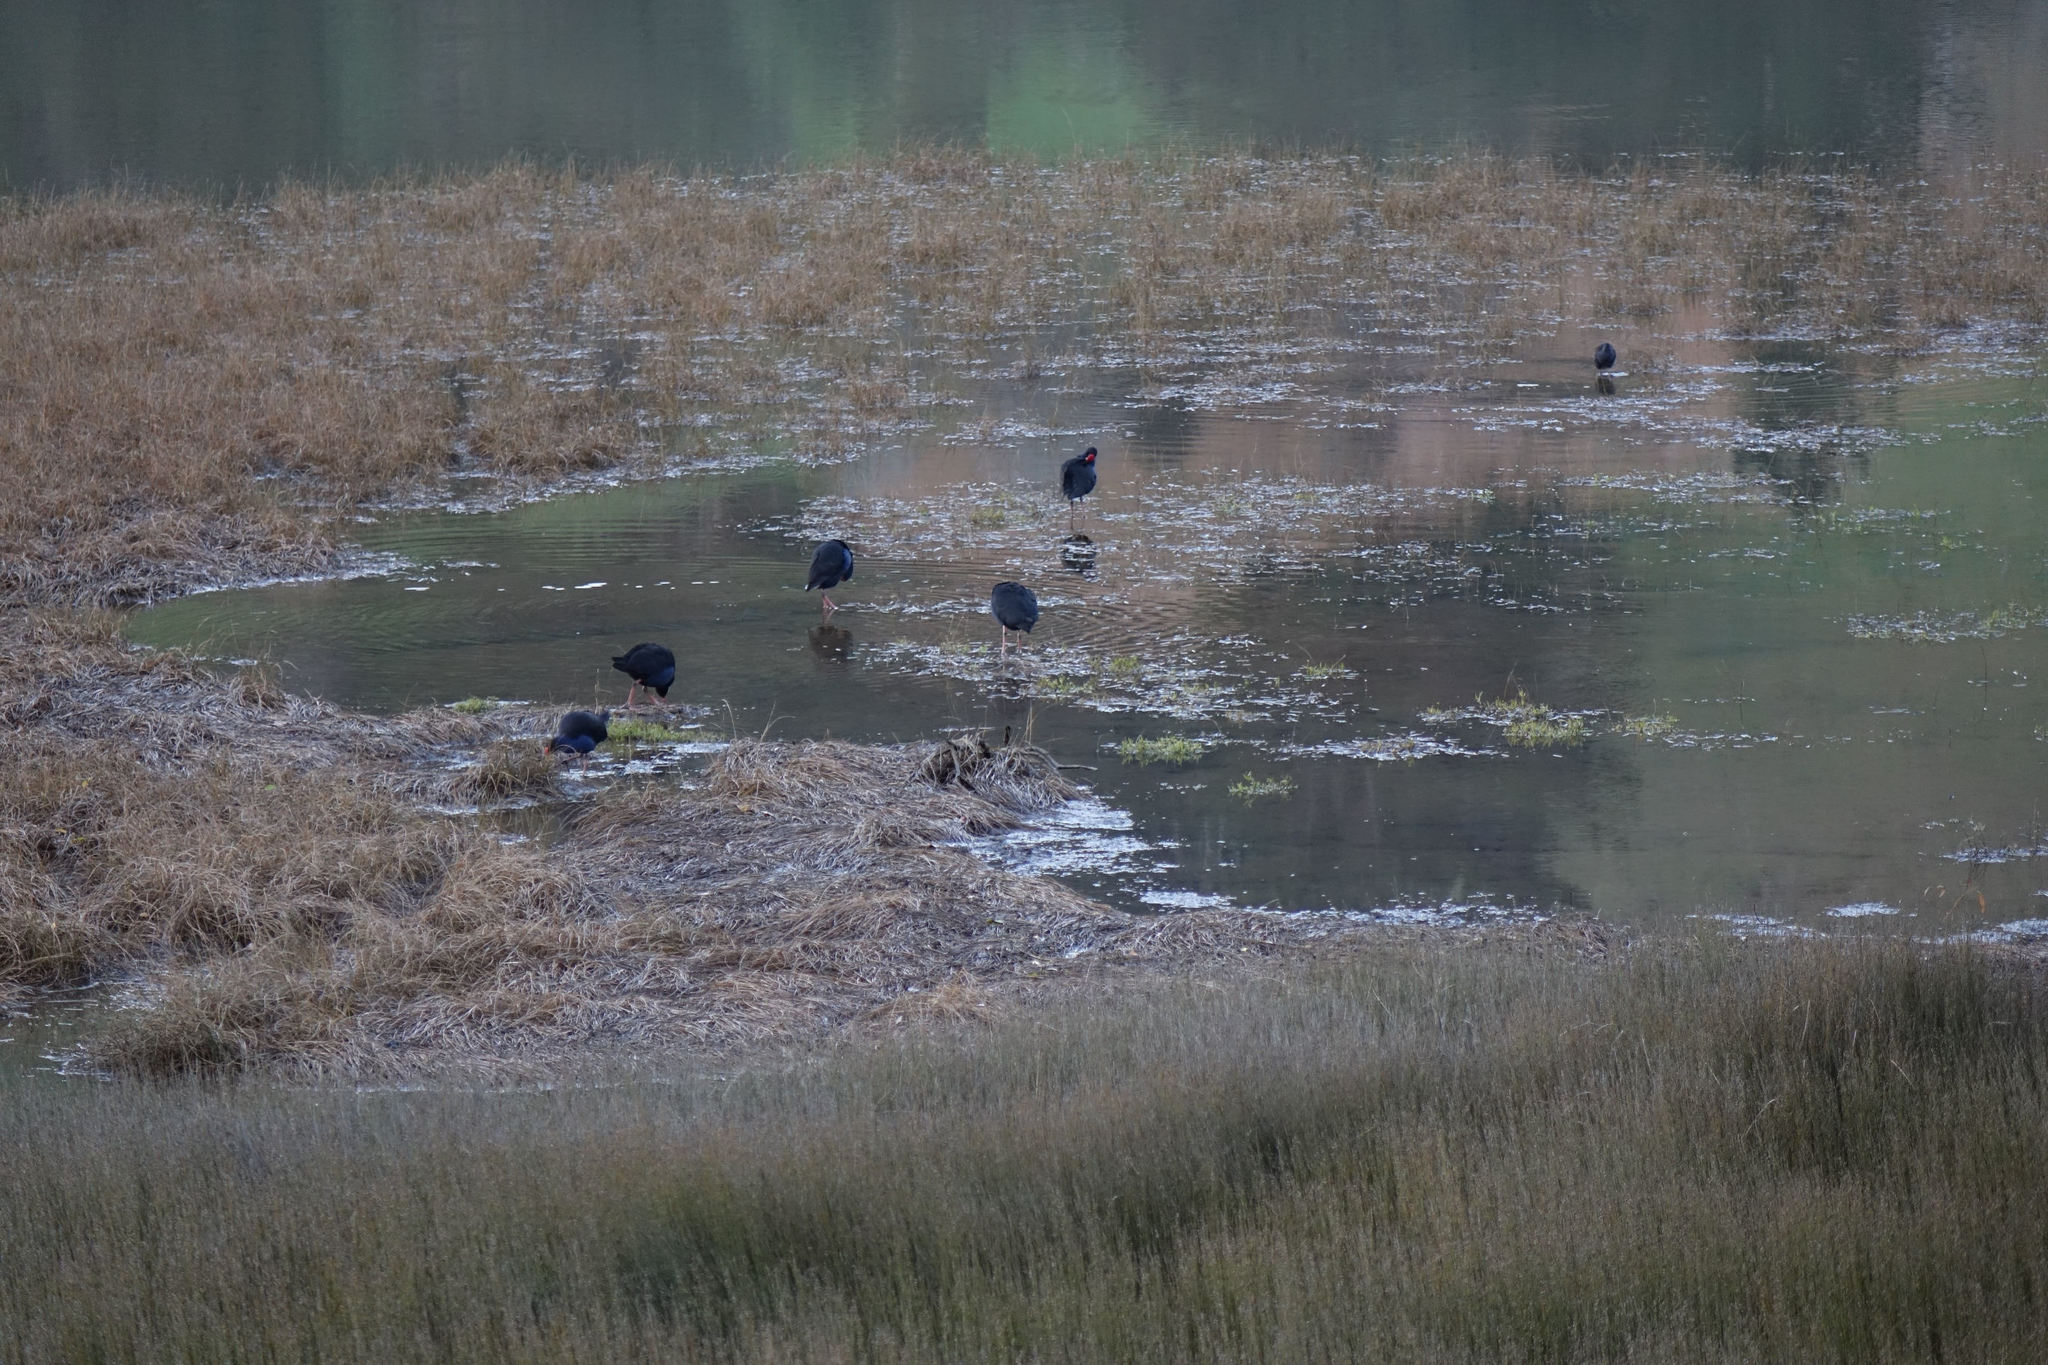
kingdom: Animalia
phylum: Chordata
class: Aves
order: Gruiformes
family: Rallidae
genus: Porphyrio
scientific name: Porphyrio melanotus
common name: Australasian swamphen
